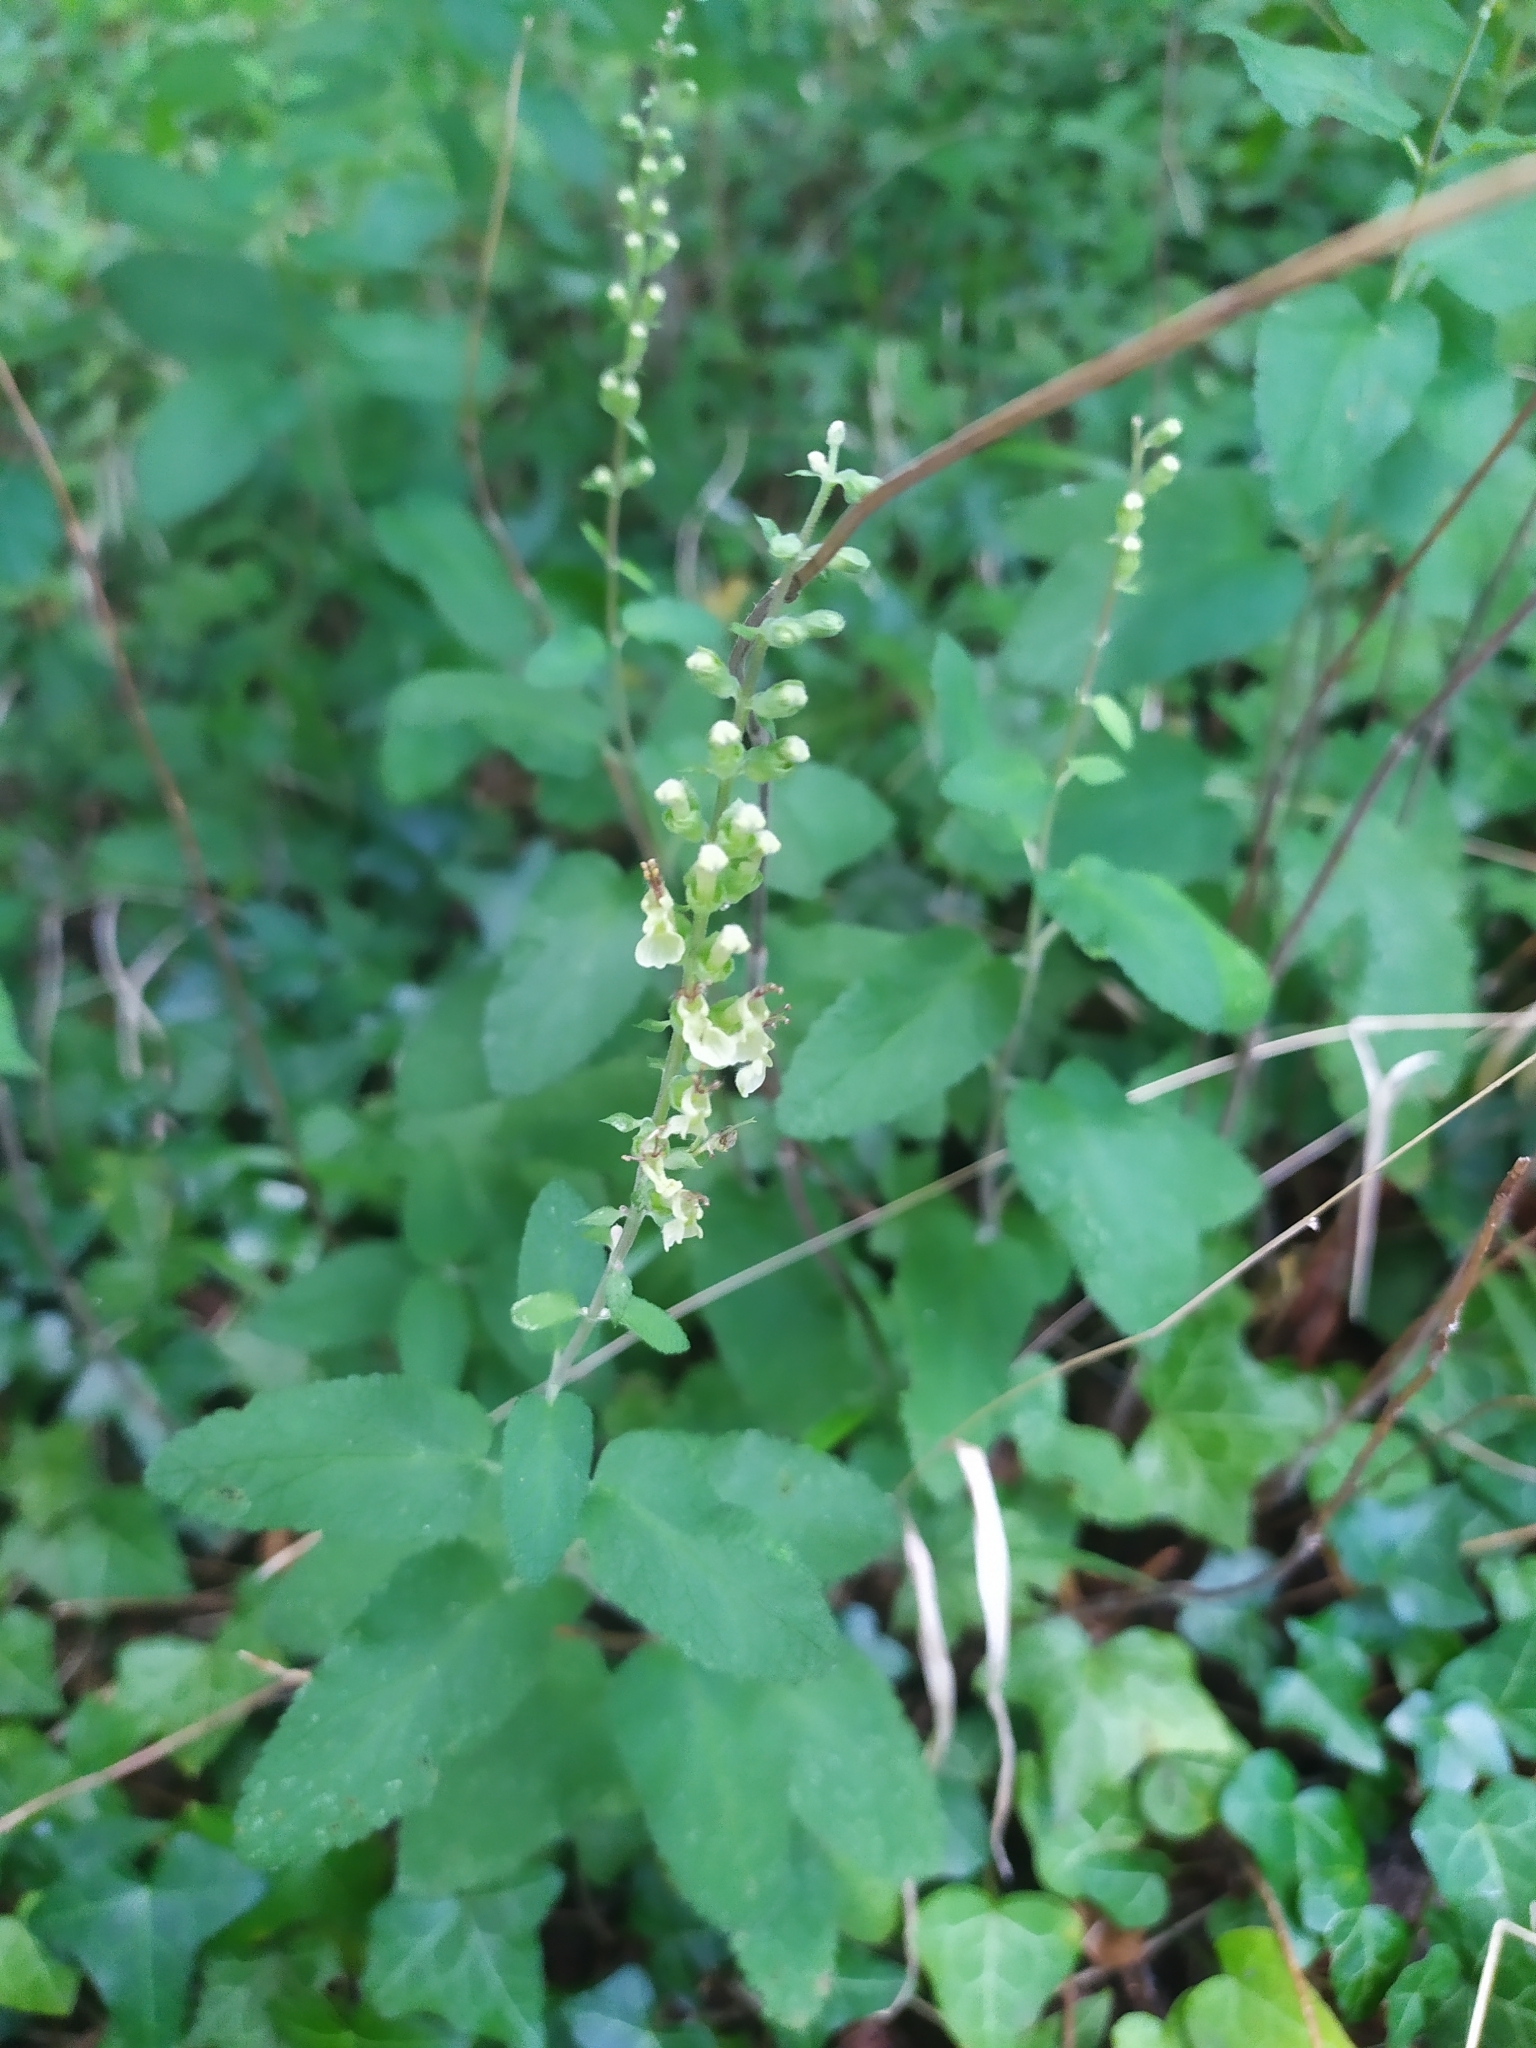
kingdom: Plantae
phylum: Tracheophyta
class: Magnoliopsida
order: Lamiales
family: Lamiaceae
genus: Teucrium
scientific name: Teucrium scorodonia
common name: Woodland germander
